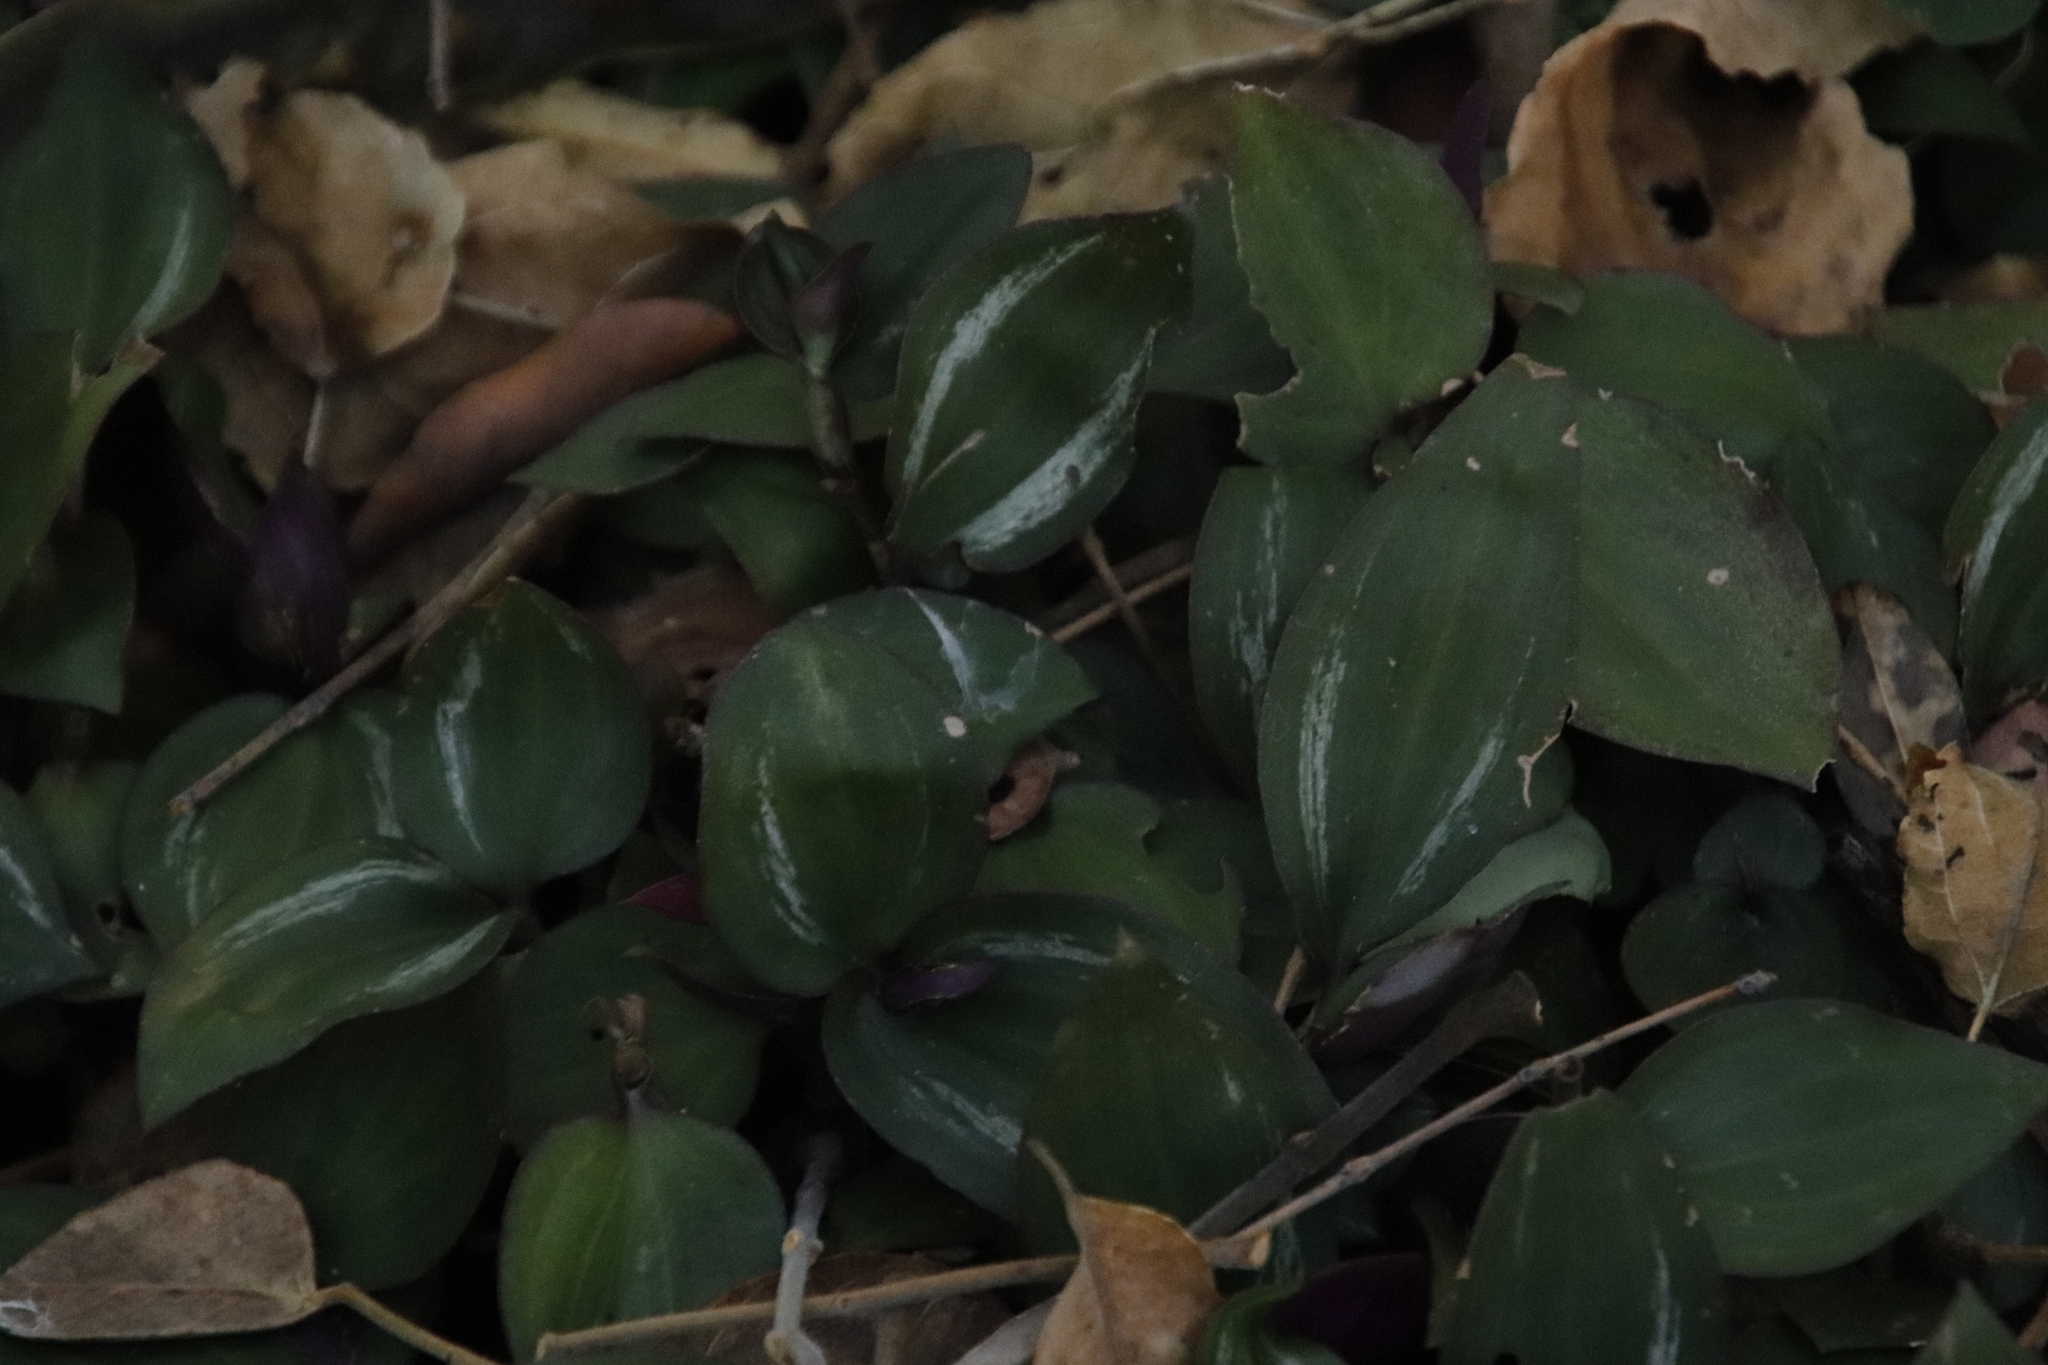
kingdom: Plantae
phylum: Tracheophyta
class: Liliopsida
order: Commelinales
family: Commelinaceae
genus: Tradescantia
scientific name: Tradescantia zebrina
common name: Inchplant
